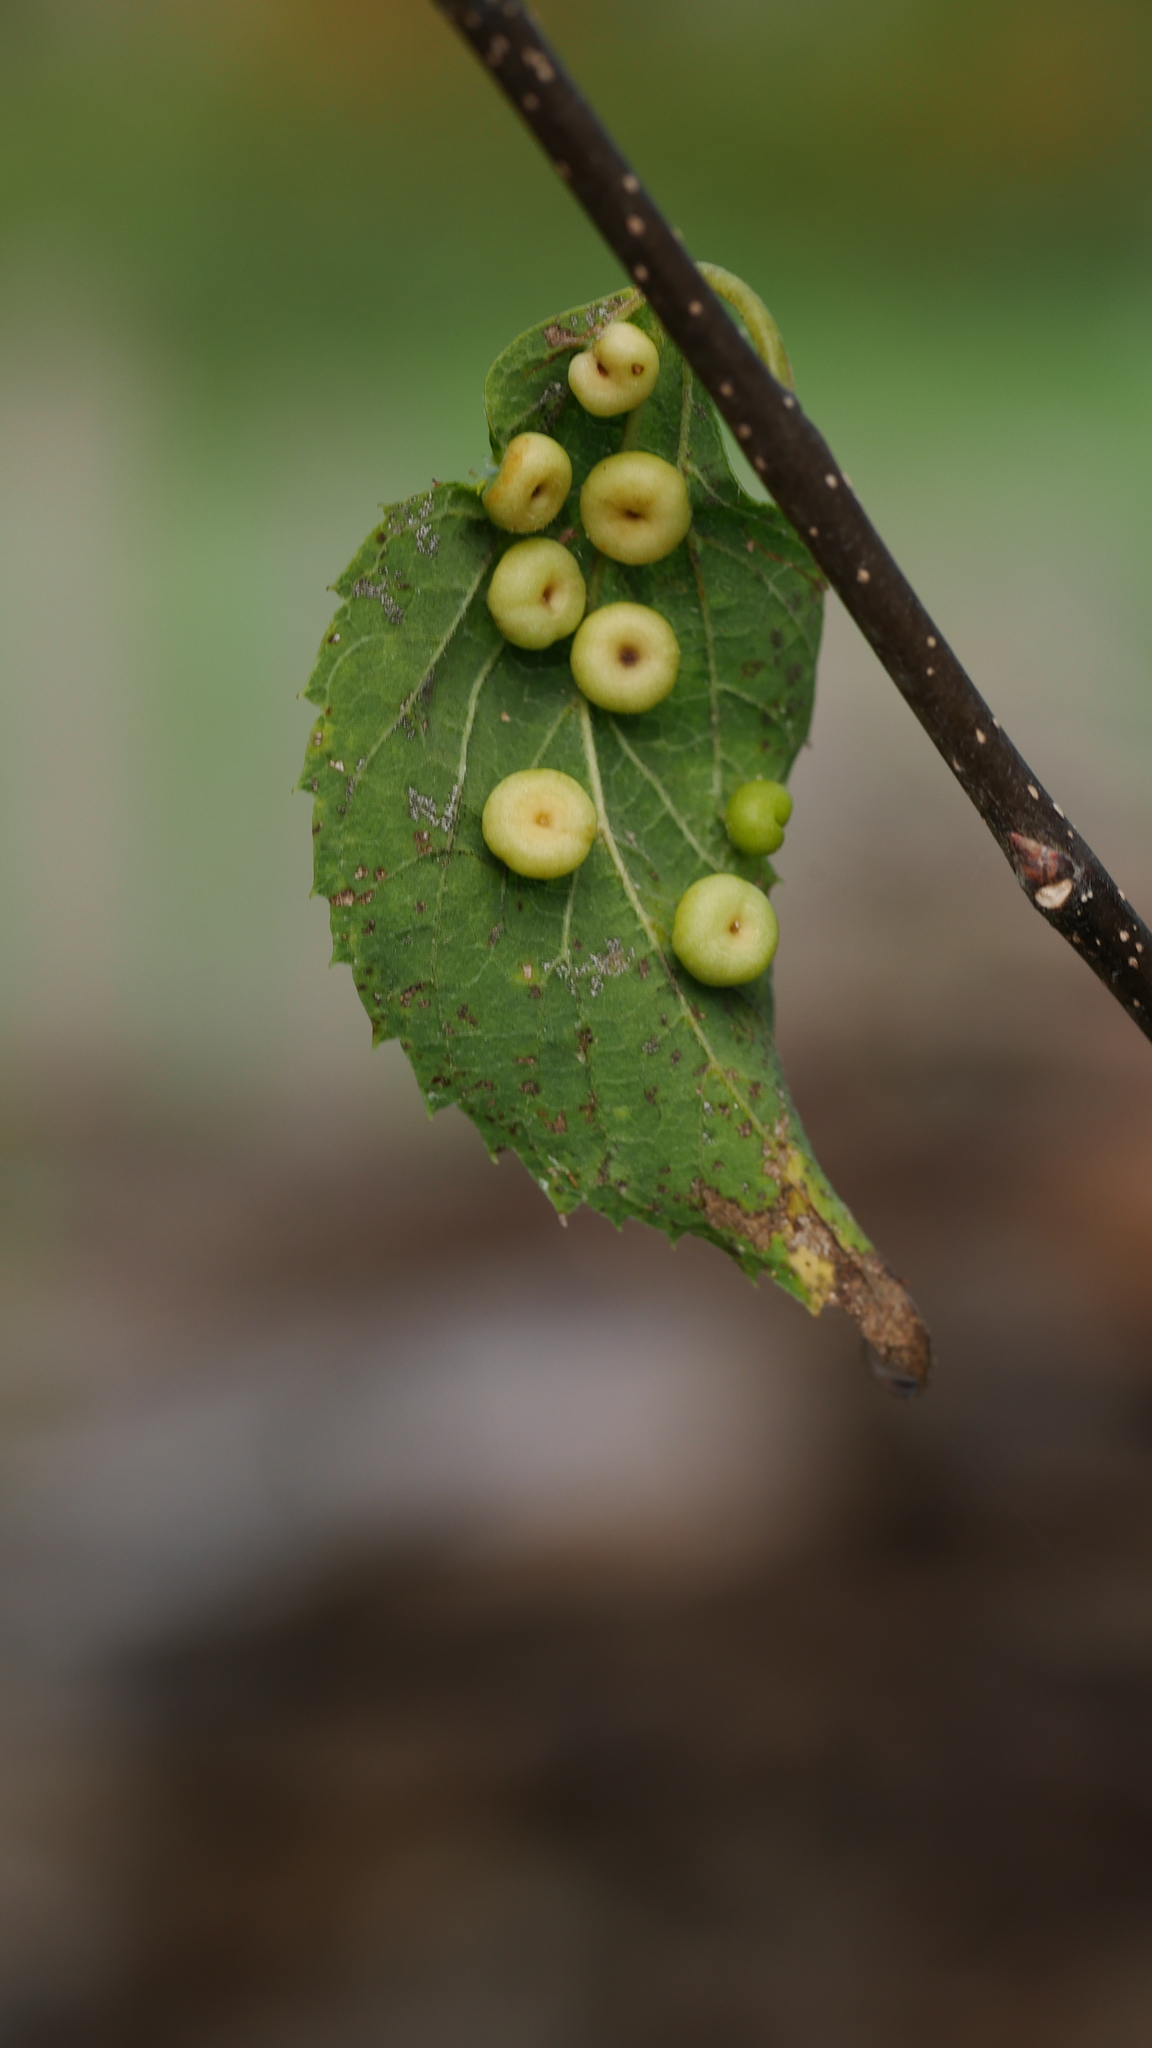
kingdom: Animalia
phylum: Arthropoda
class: Insecta
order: Hemiptera
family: Aphalaridae
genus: Pachypsylla
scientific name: Pachypsylla celtidismamma
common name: Hackberry nipplegall psyllid
